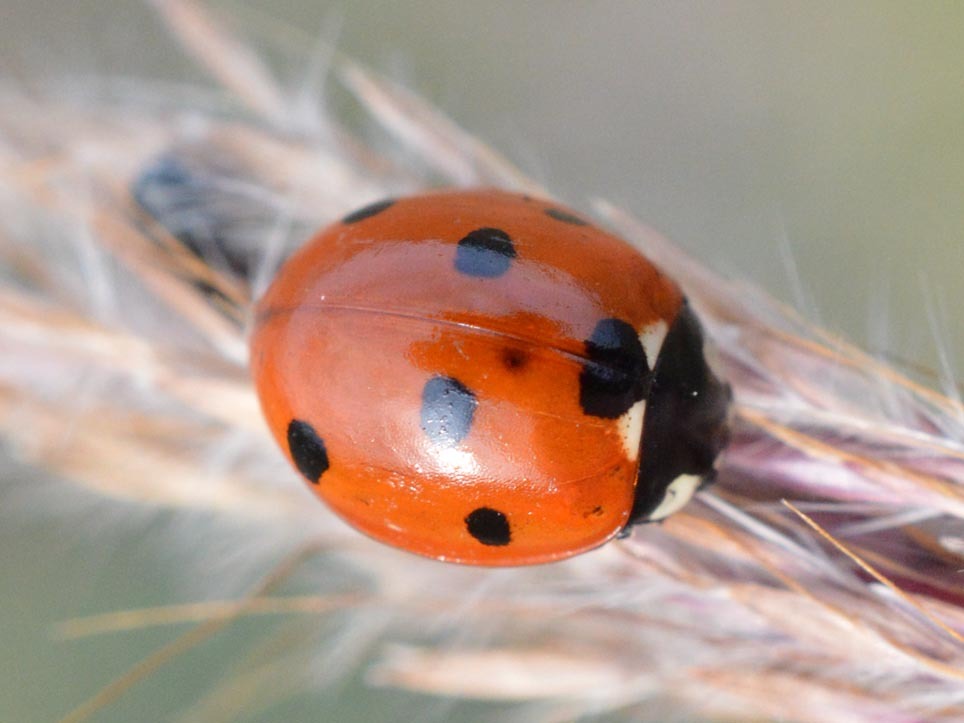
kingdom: Animalia
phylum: Arthropoda
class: Insecta
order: Coleoptera
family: Coccinellidae
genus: Coccinella
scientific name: Coccinella septempunctata
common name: Sevenspotted lady beetle
